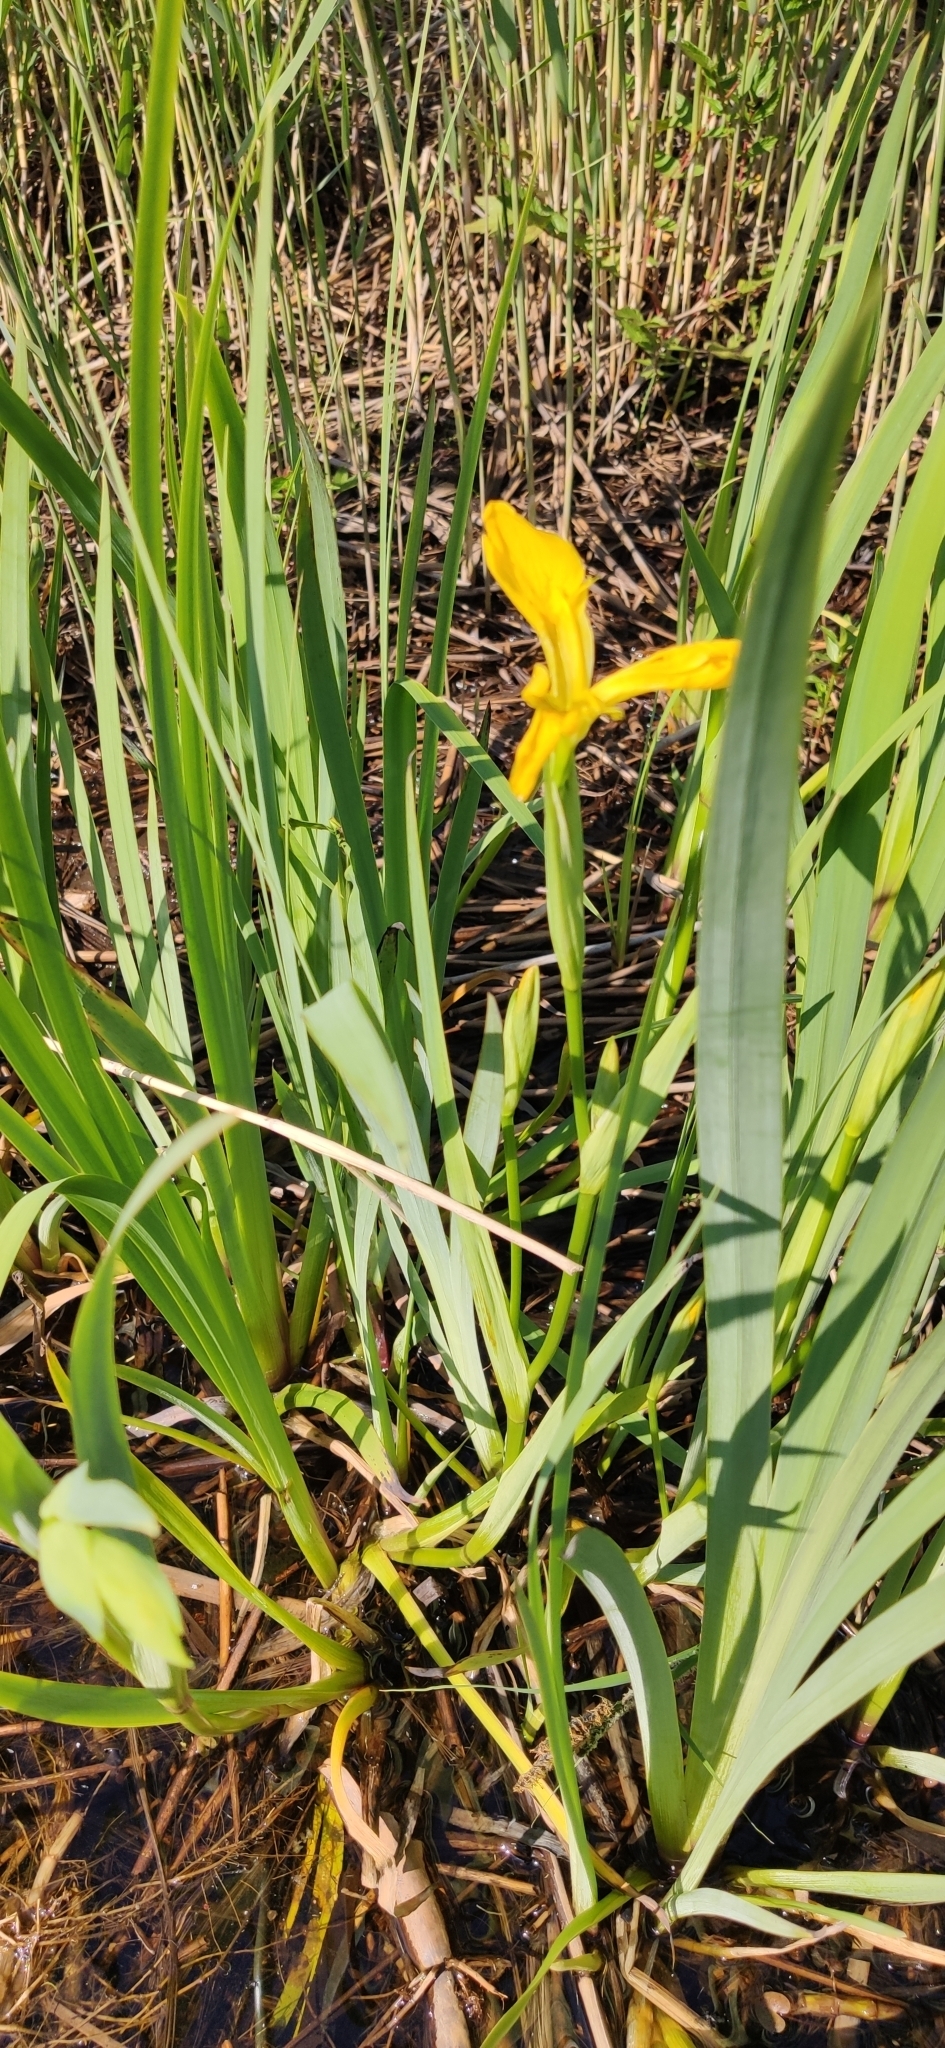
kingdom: Plantae
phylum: Tracheophyta
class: Liliopsida
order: Asparagales
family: Iridaceae
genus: Iris
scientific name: Iris pseudacorus
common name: Yellow flag
